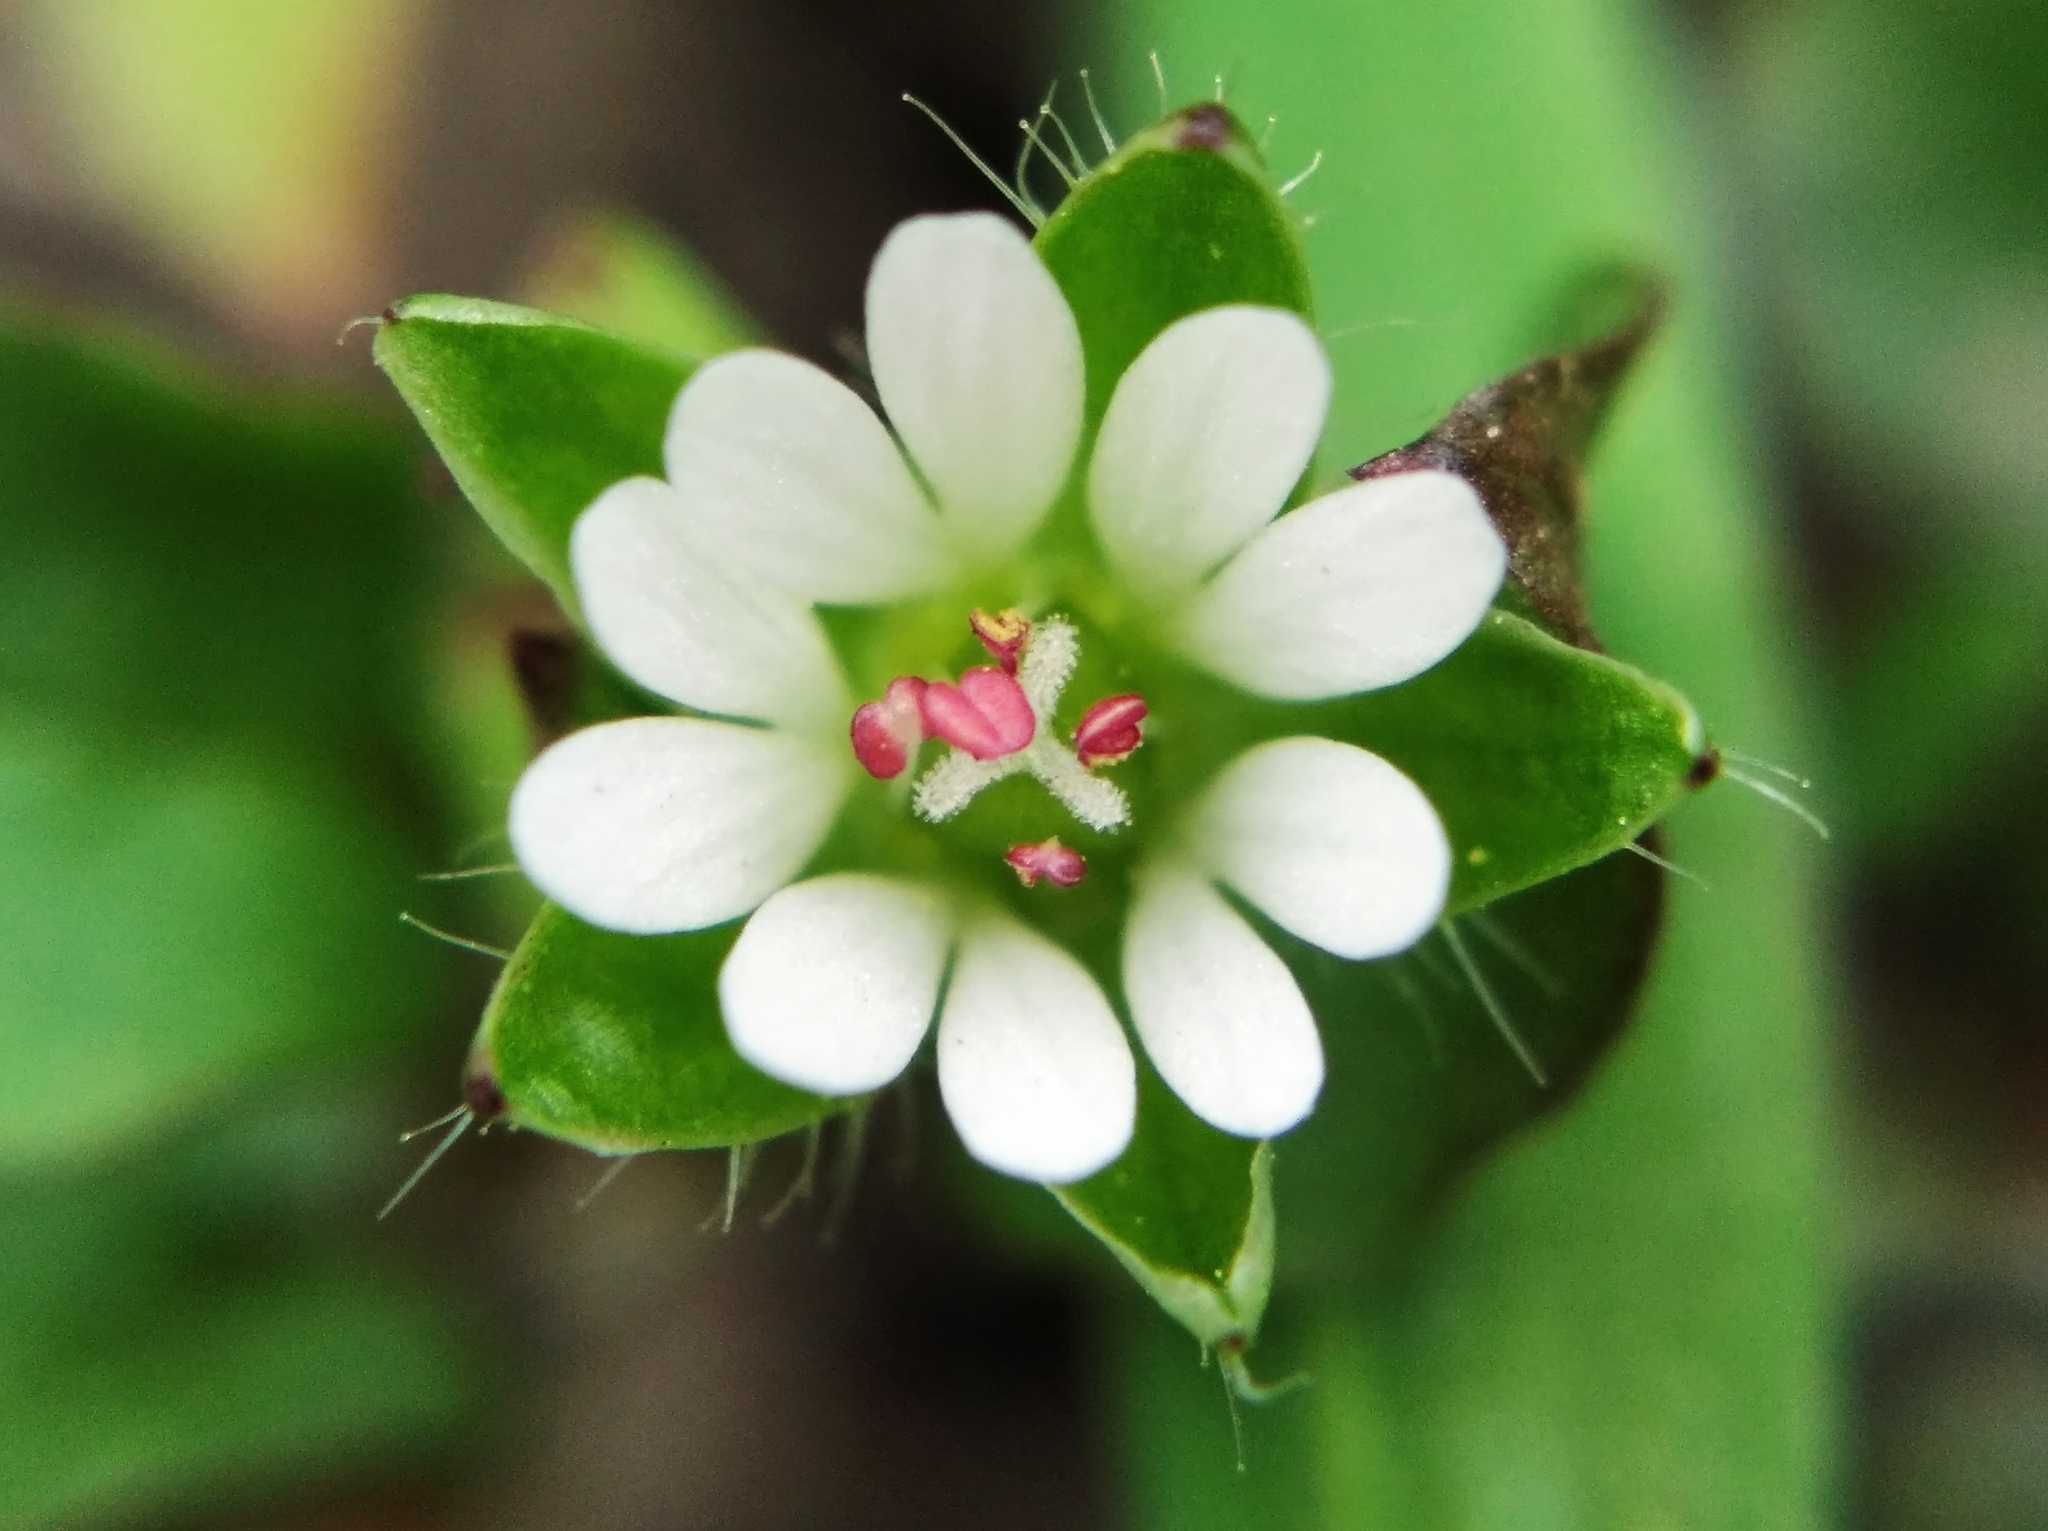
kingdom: Plantae
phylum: Tracheophyta
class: Magnoliopsida
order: Caryophyllales
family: Caryophyllaceae
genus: Stellaria
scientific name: Stellaria media
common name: Common chickweed
